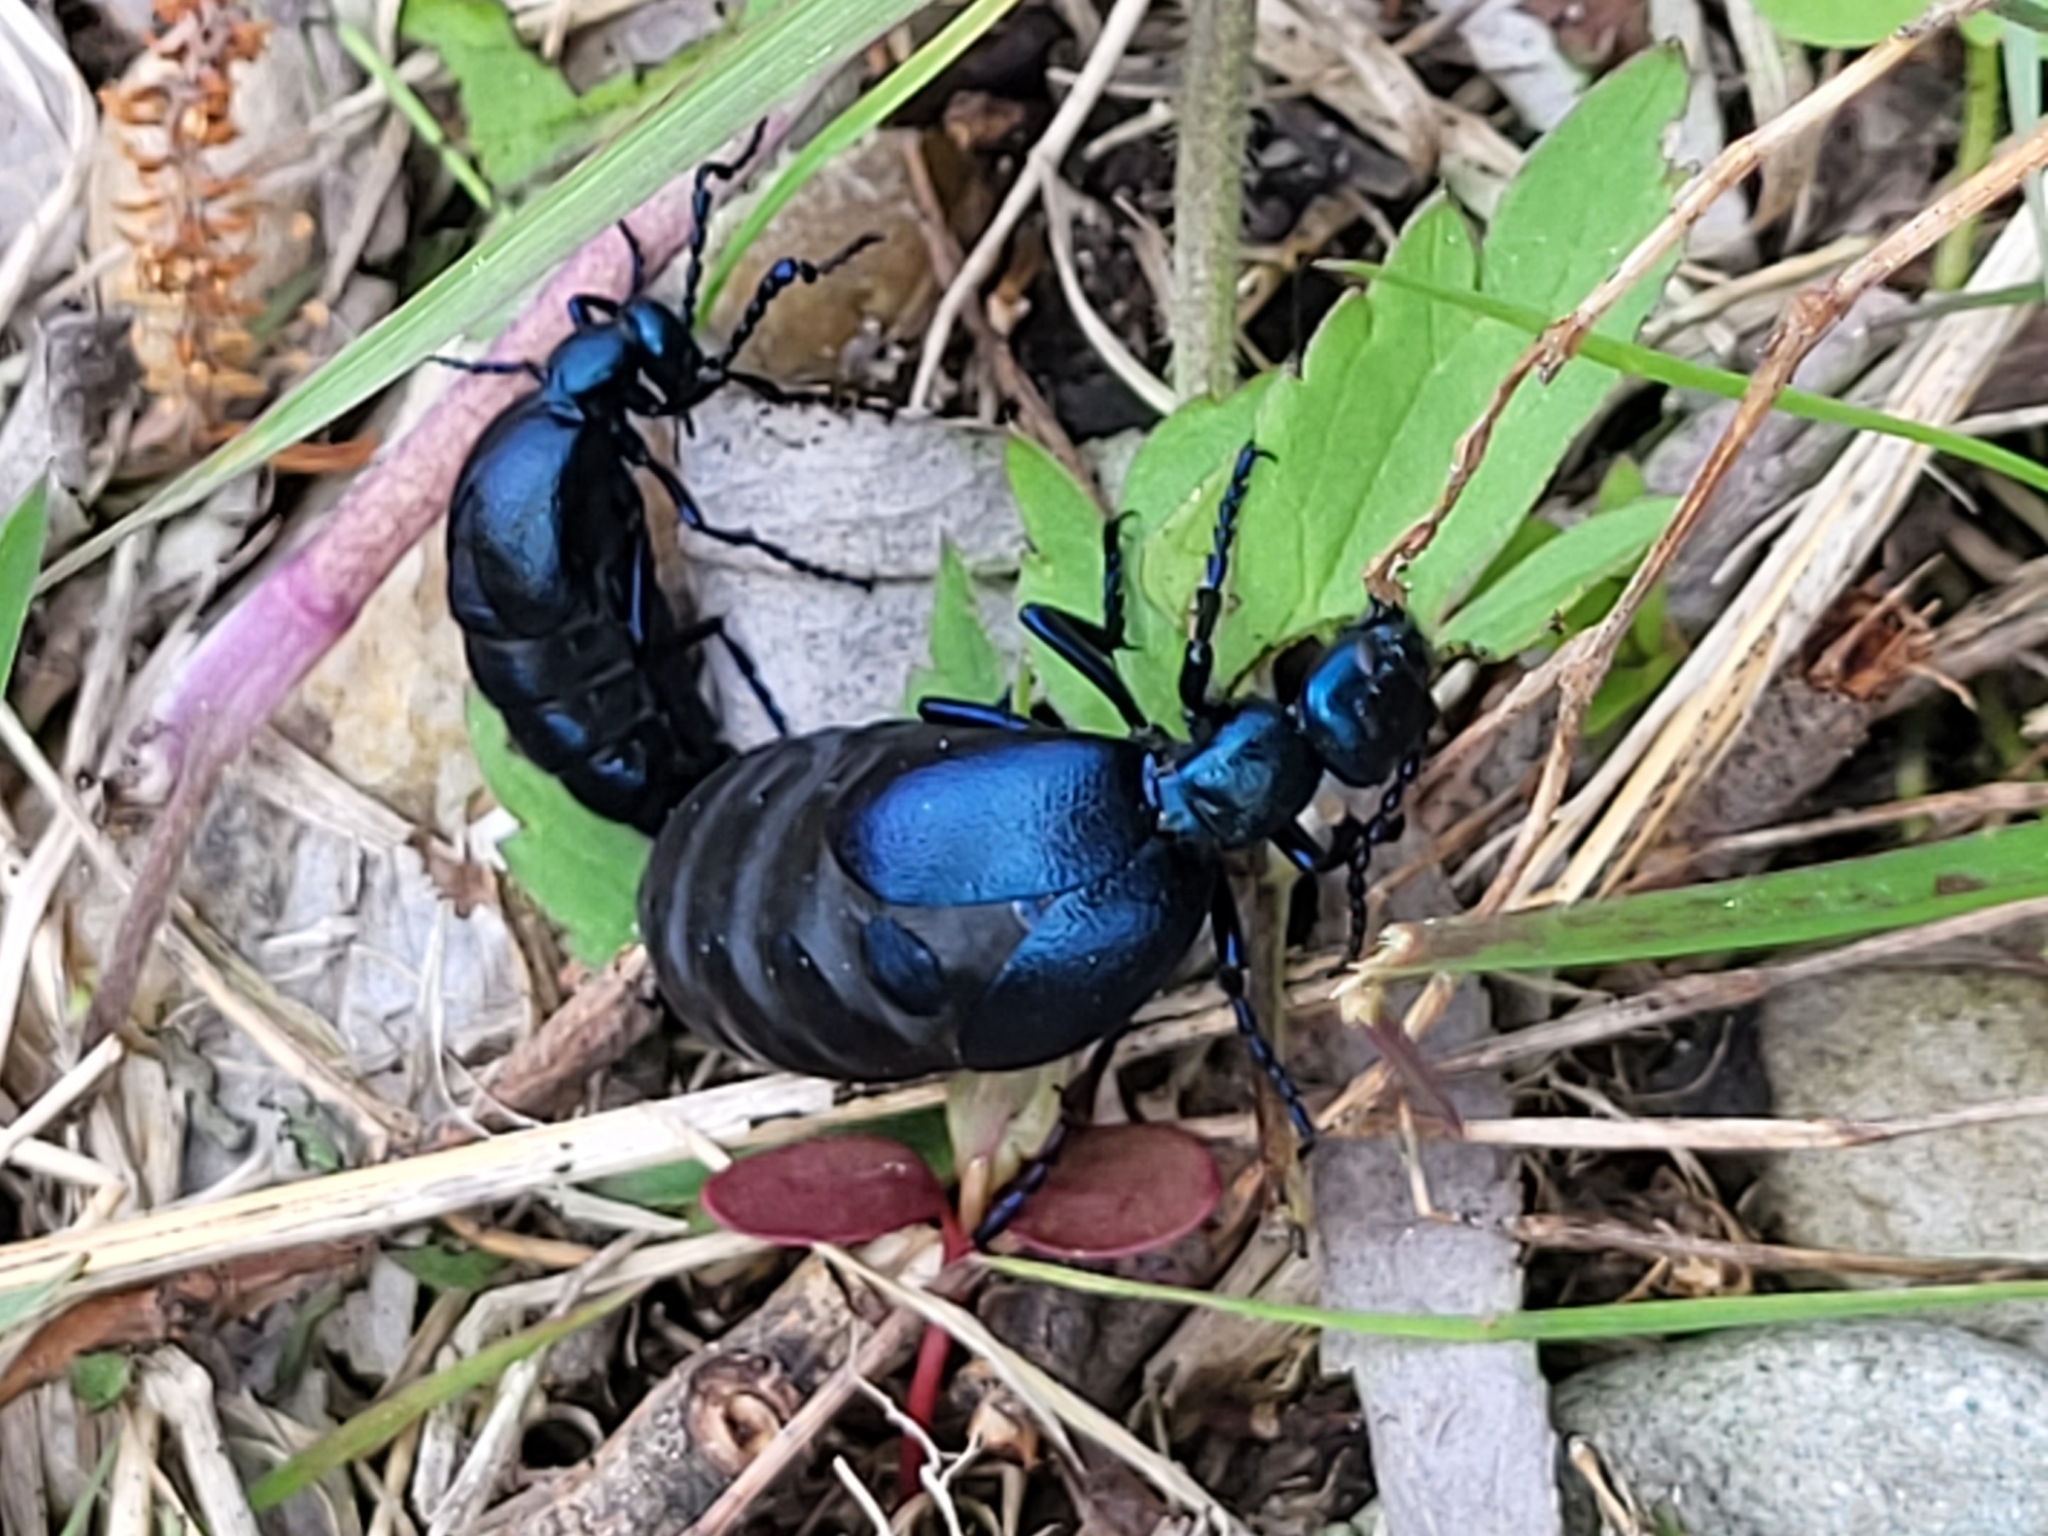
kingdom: Animalia
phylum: Arthropoda
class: Insecta
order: Coleoptera
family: Meloidae
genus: Meloe
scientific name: Meloe violaceus
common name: Violet oil-beetle
